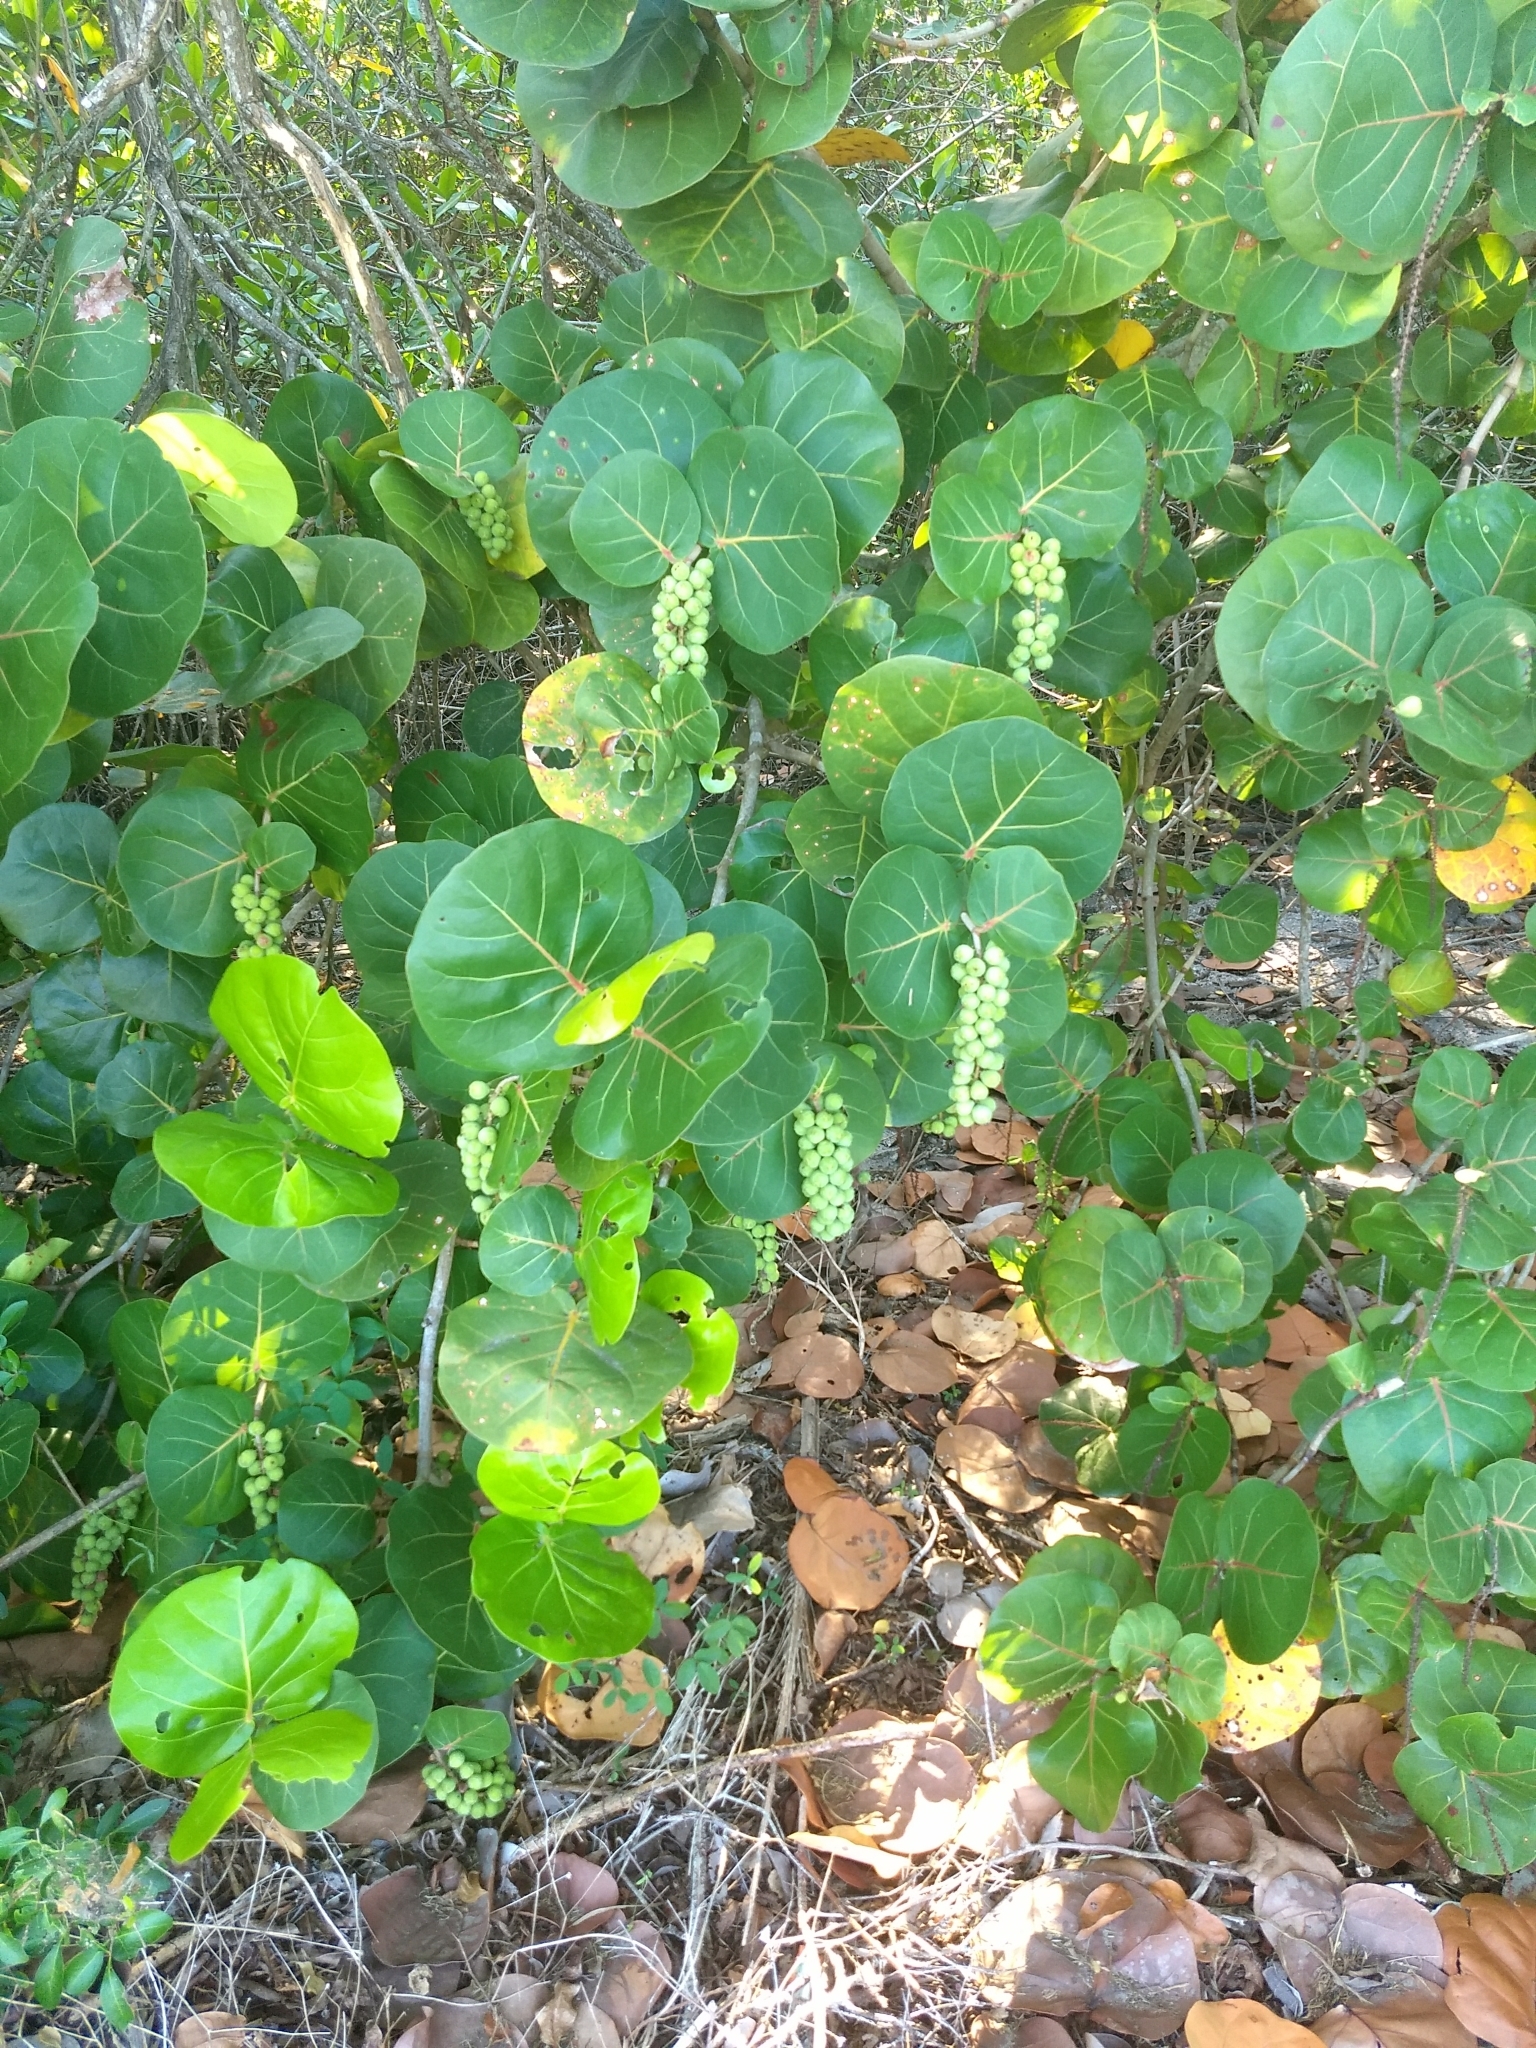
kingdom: Plantae
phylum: Tracheophyta
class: Magnoliopsida
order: Caryophyllales
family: Polygonaceae
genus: Coccoloba
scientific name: Coccoloba uvifera
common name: Seagrape
